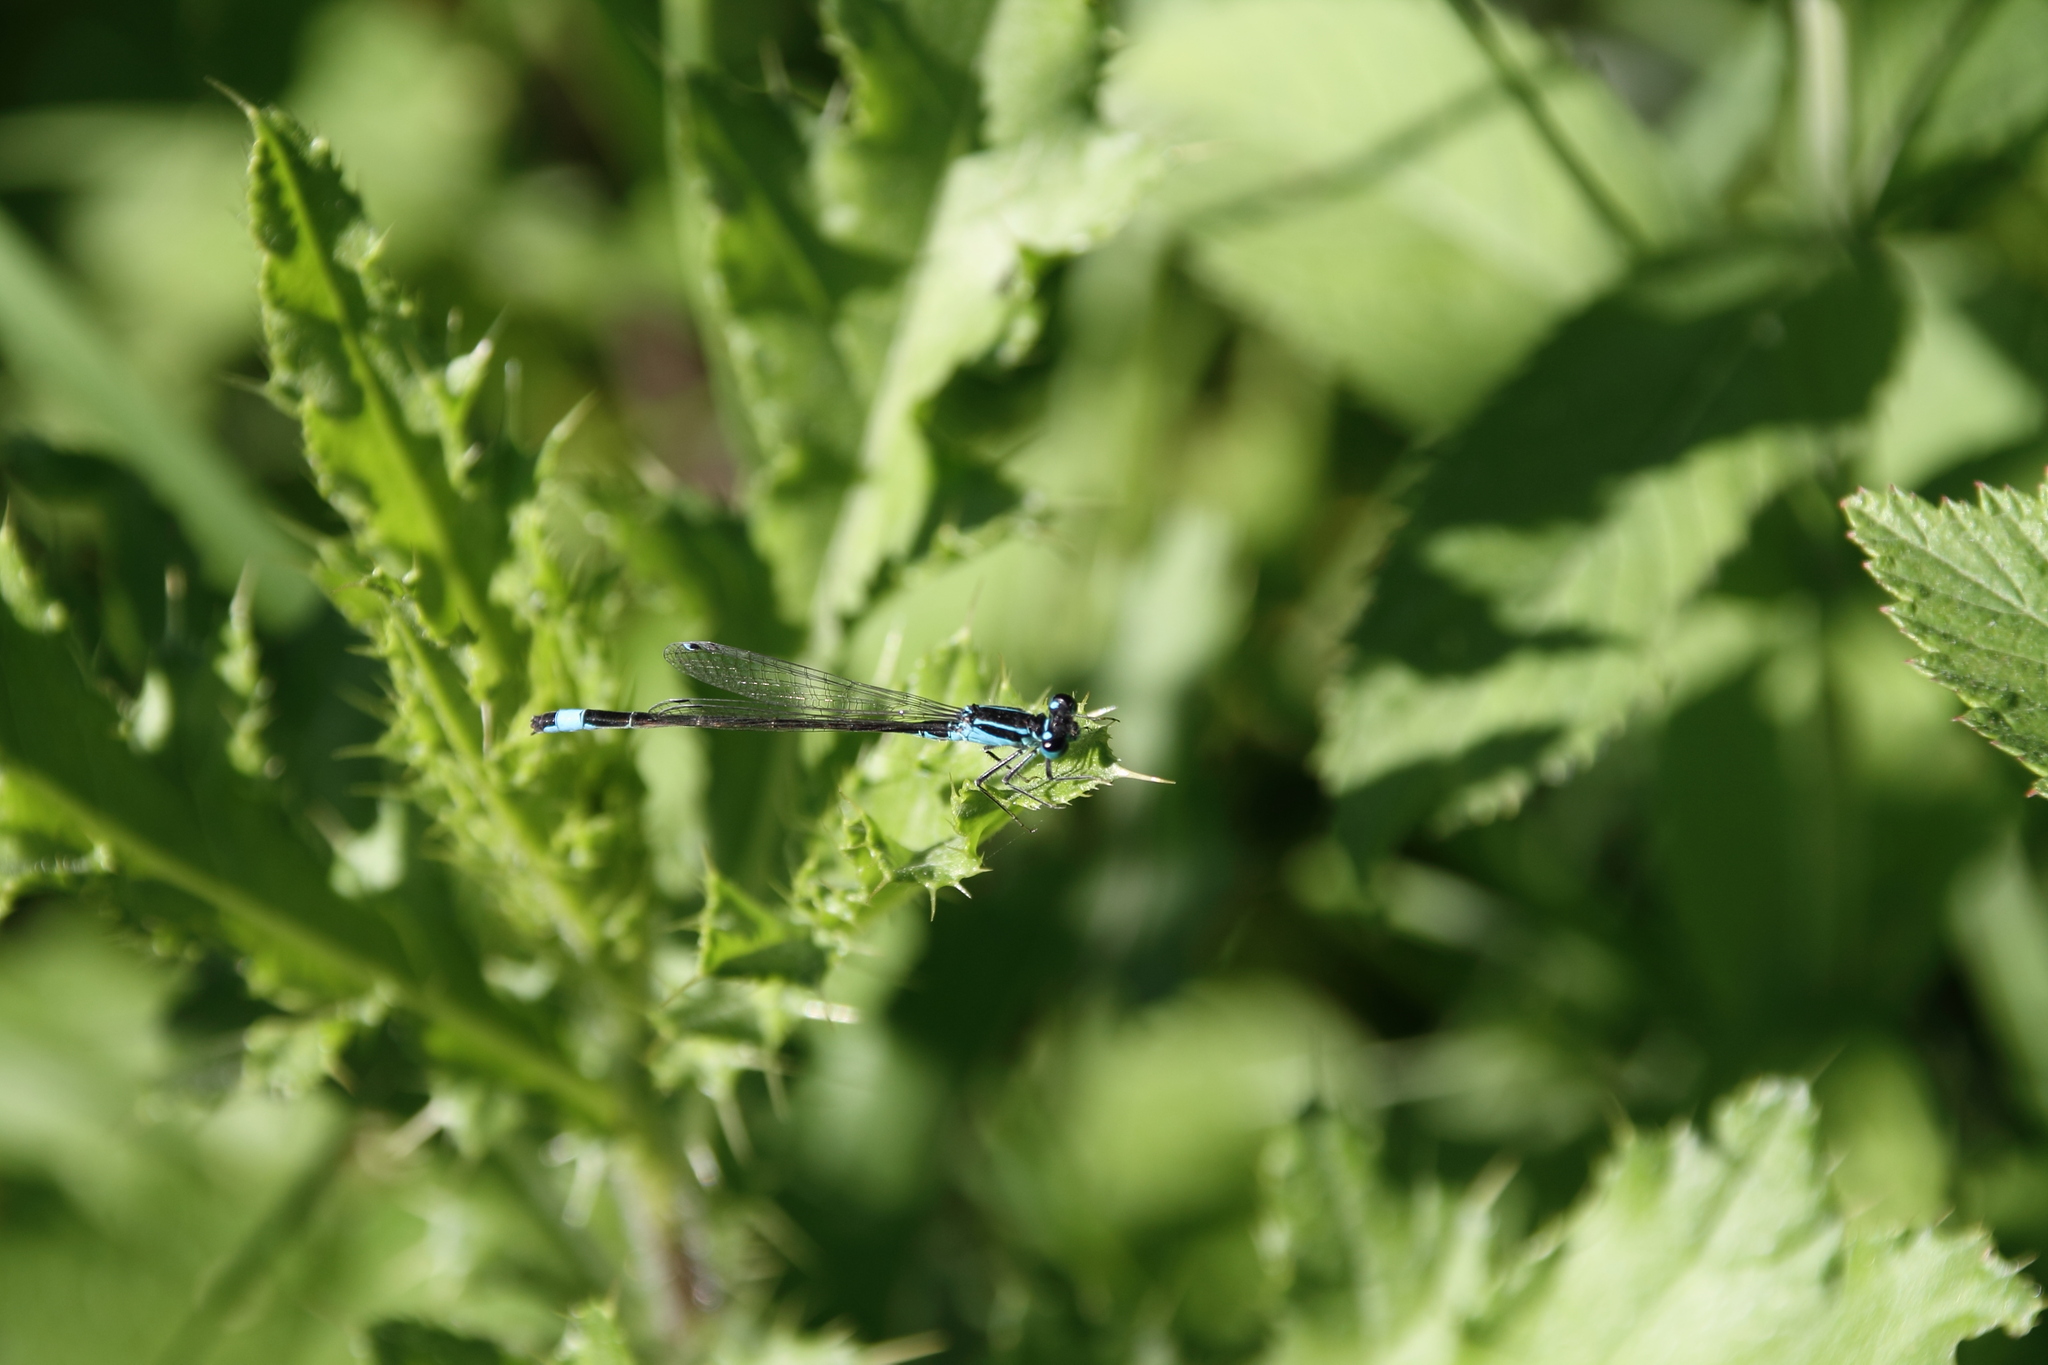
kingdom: Animalia
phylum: Arthropoda
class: Insecta
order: Odonata
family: Coenagrionidae
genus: Ischnura
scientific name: Ischnura elegans
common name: Blue-tailed damselfly
